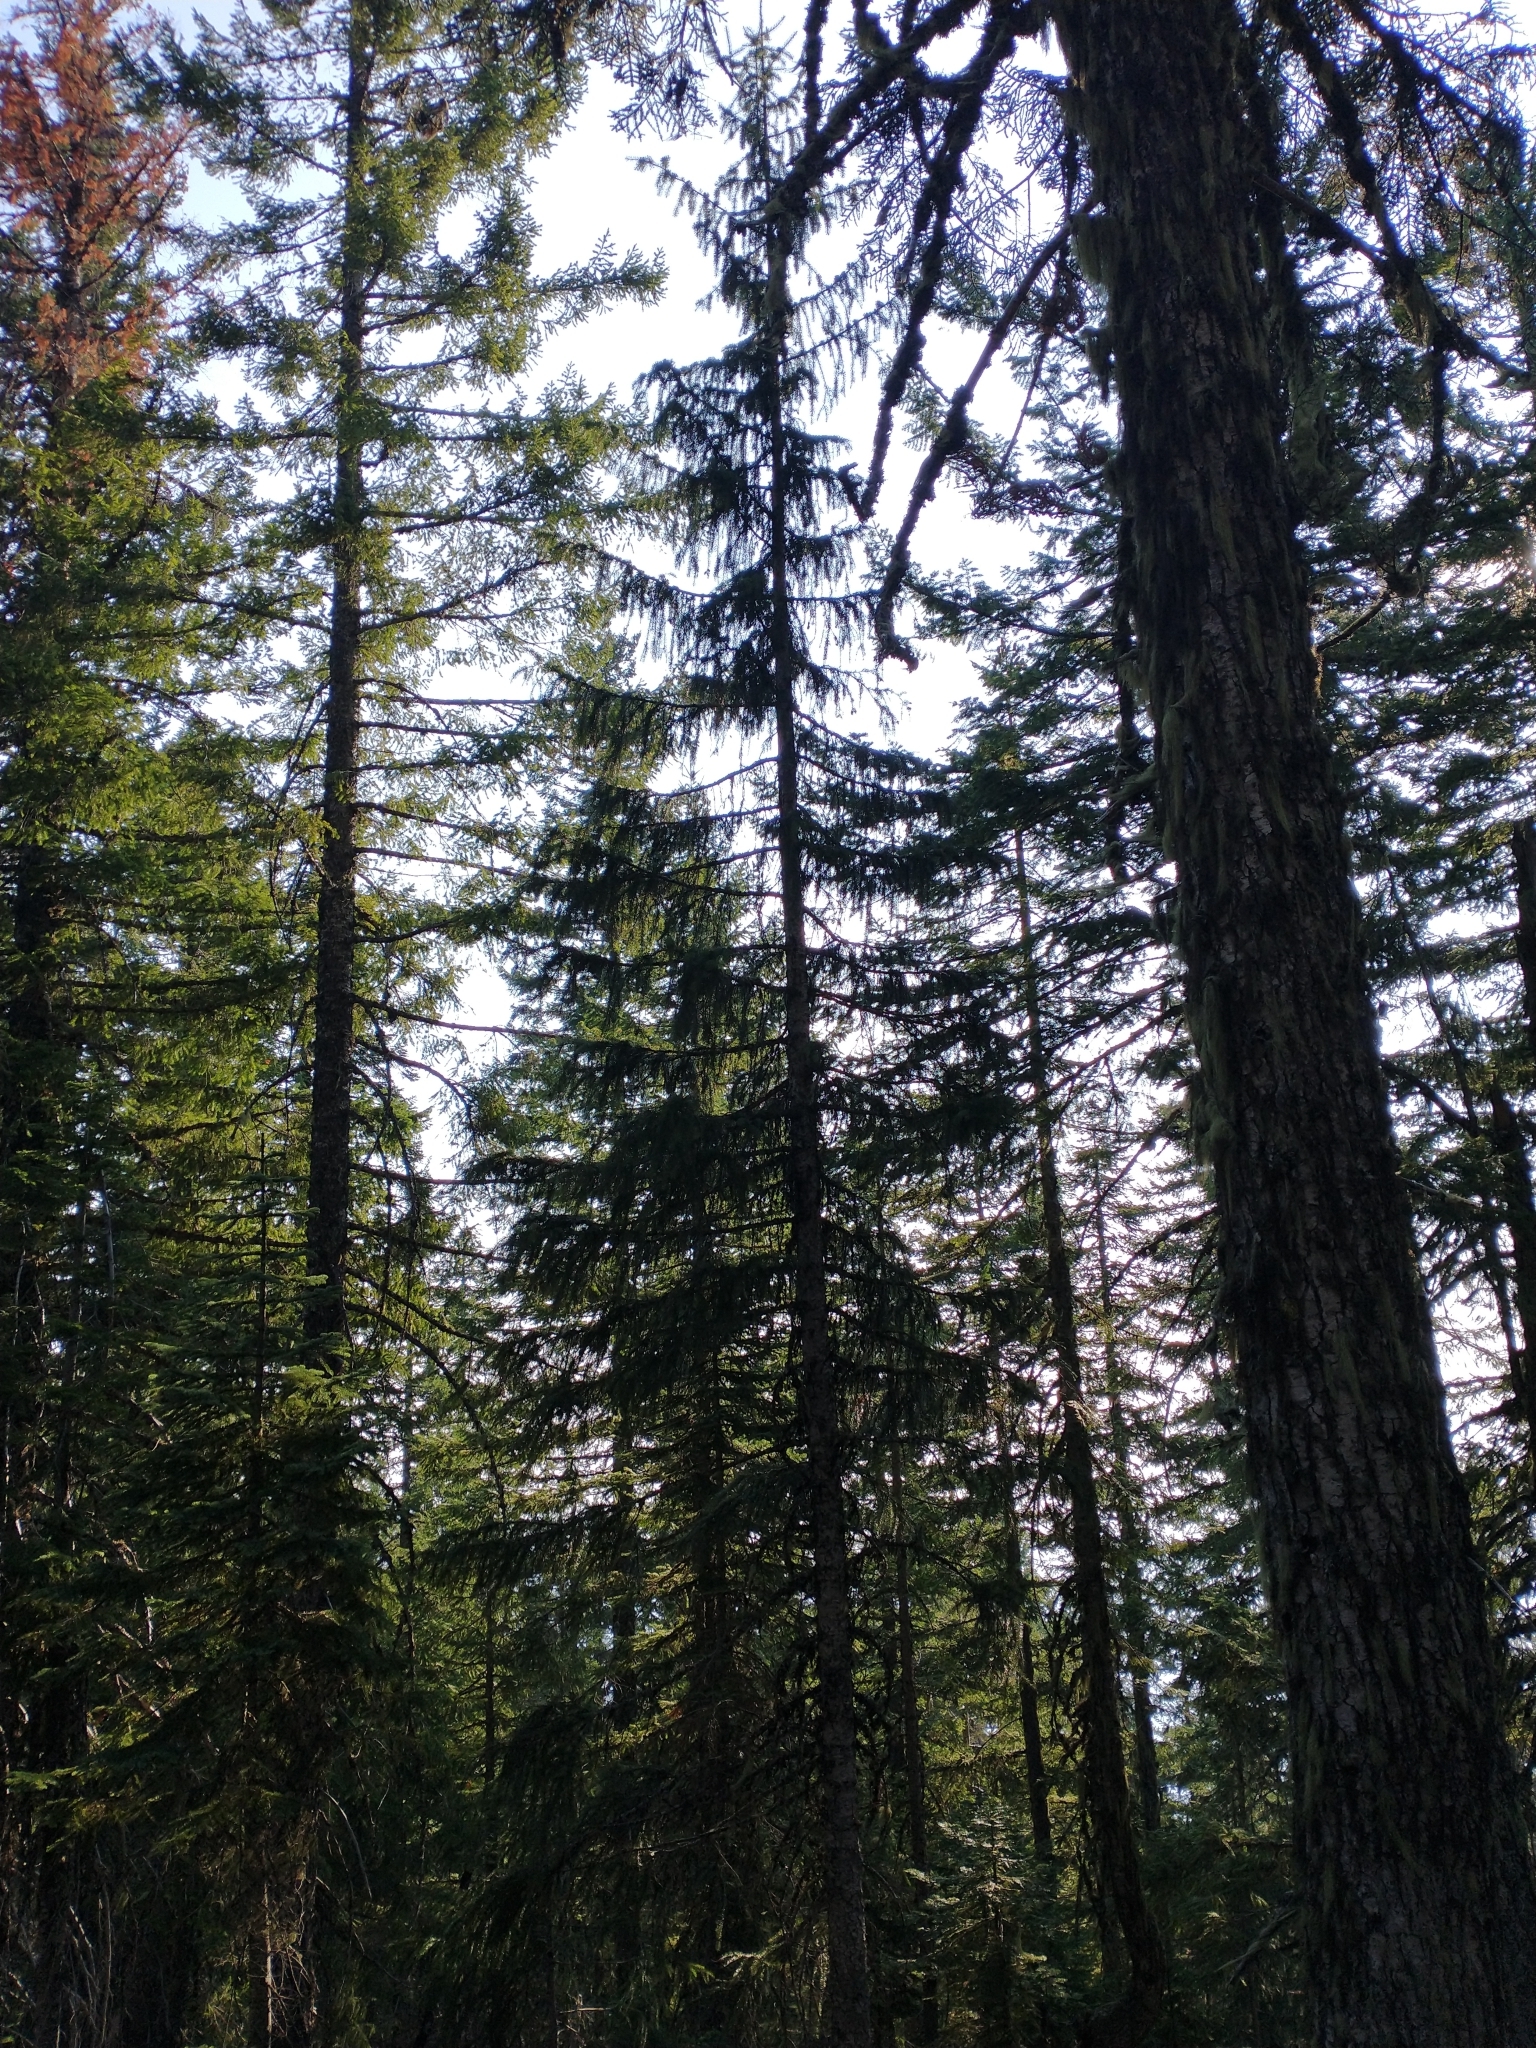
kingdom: Plantae
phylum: Tracheophyta
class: Pinopsida
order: Pinales
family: Pinaceae
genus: Picea
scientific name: Picea breweriana
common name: Brewer's spruce
